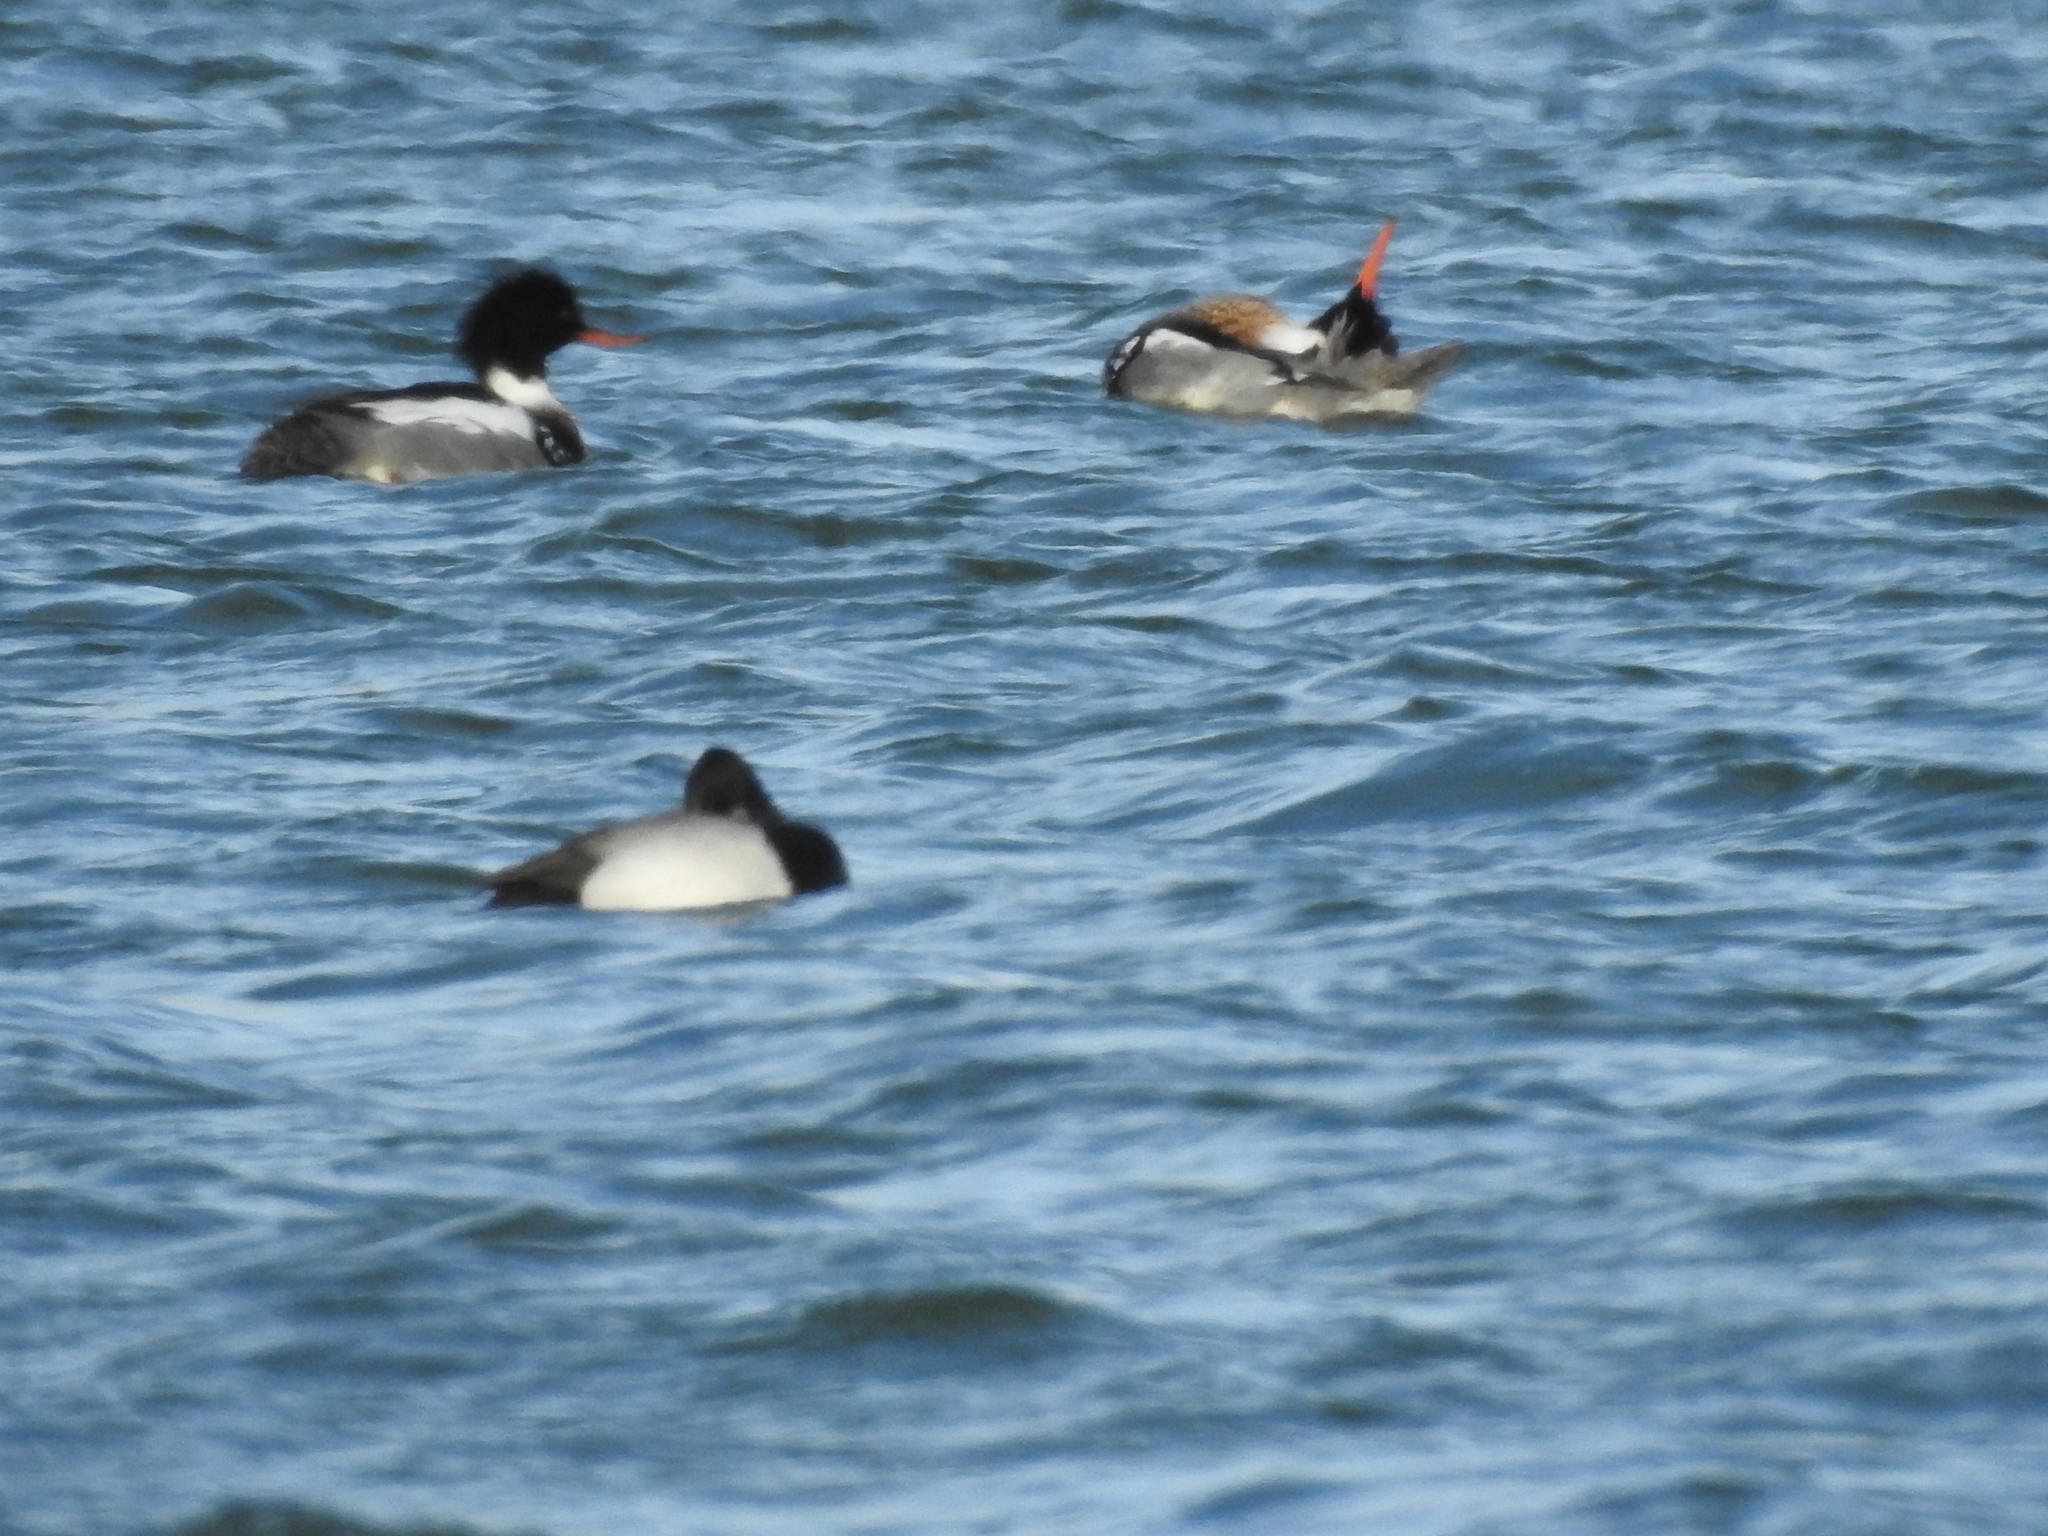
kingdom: Animalia
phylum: Chordata
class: Aves
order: Anseriformes
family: Anatidae
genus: Aythya
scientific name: Aythya affinis
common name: Lesser scaup
